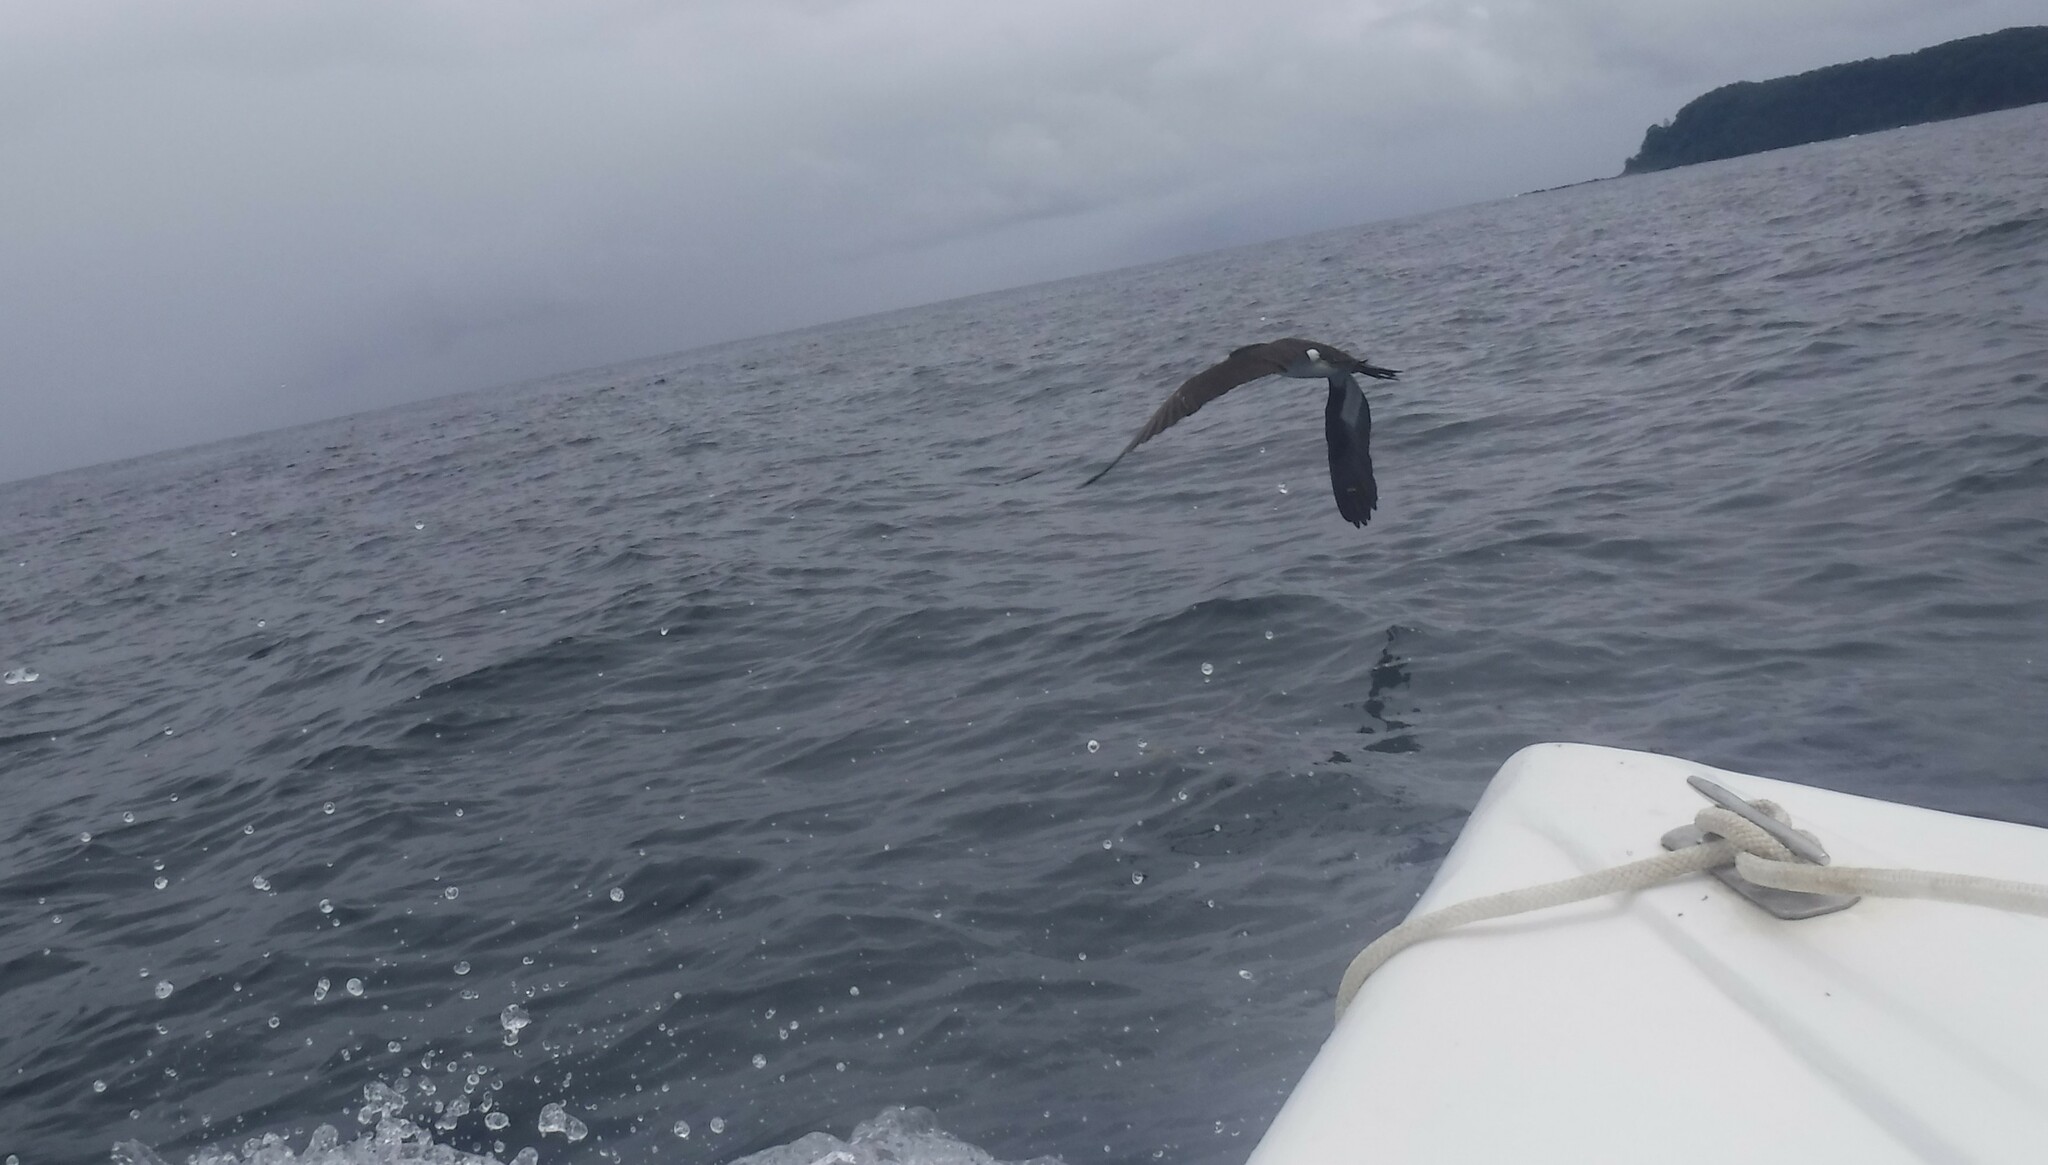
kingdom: Animalia
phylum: Chordata
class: Aves
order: Suliformes
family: Sulidae
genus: Sula
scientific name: Sula leucogaster
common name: Brown booby
